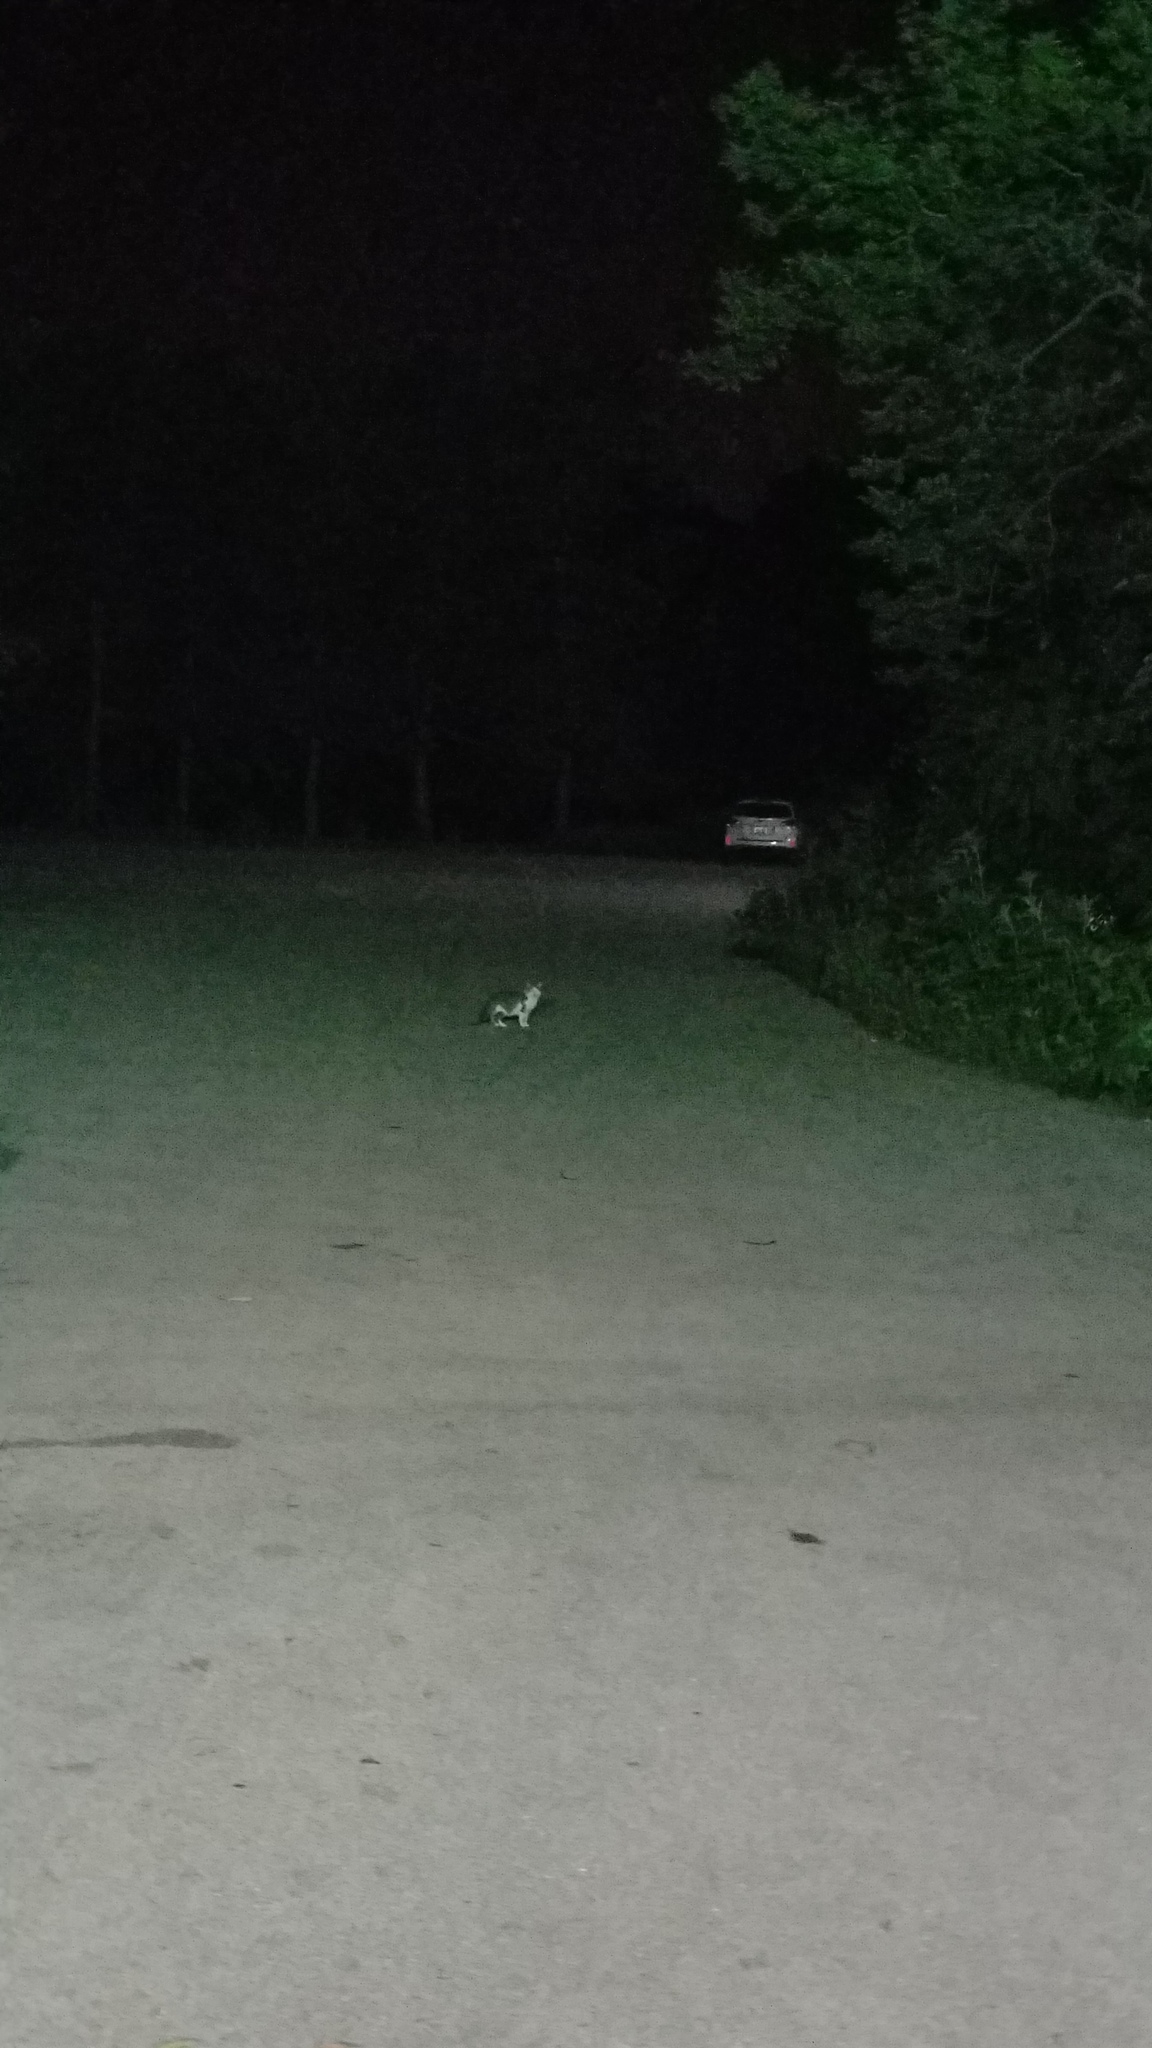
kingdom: Animalia
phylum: Chordata
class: Mammalia
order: Carnivora
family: Felidae
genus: Felis
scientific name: Felis catus
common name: Domestic cat
